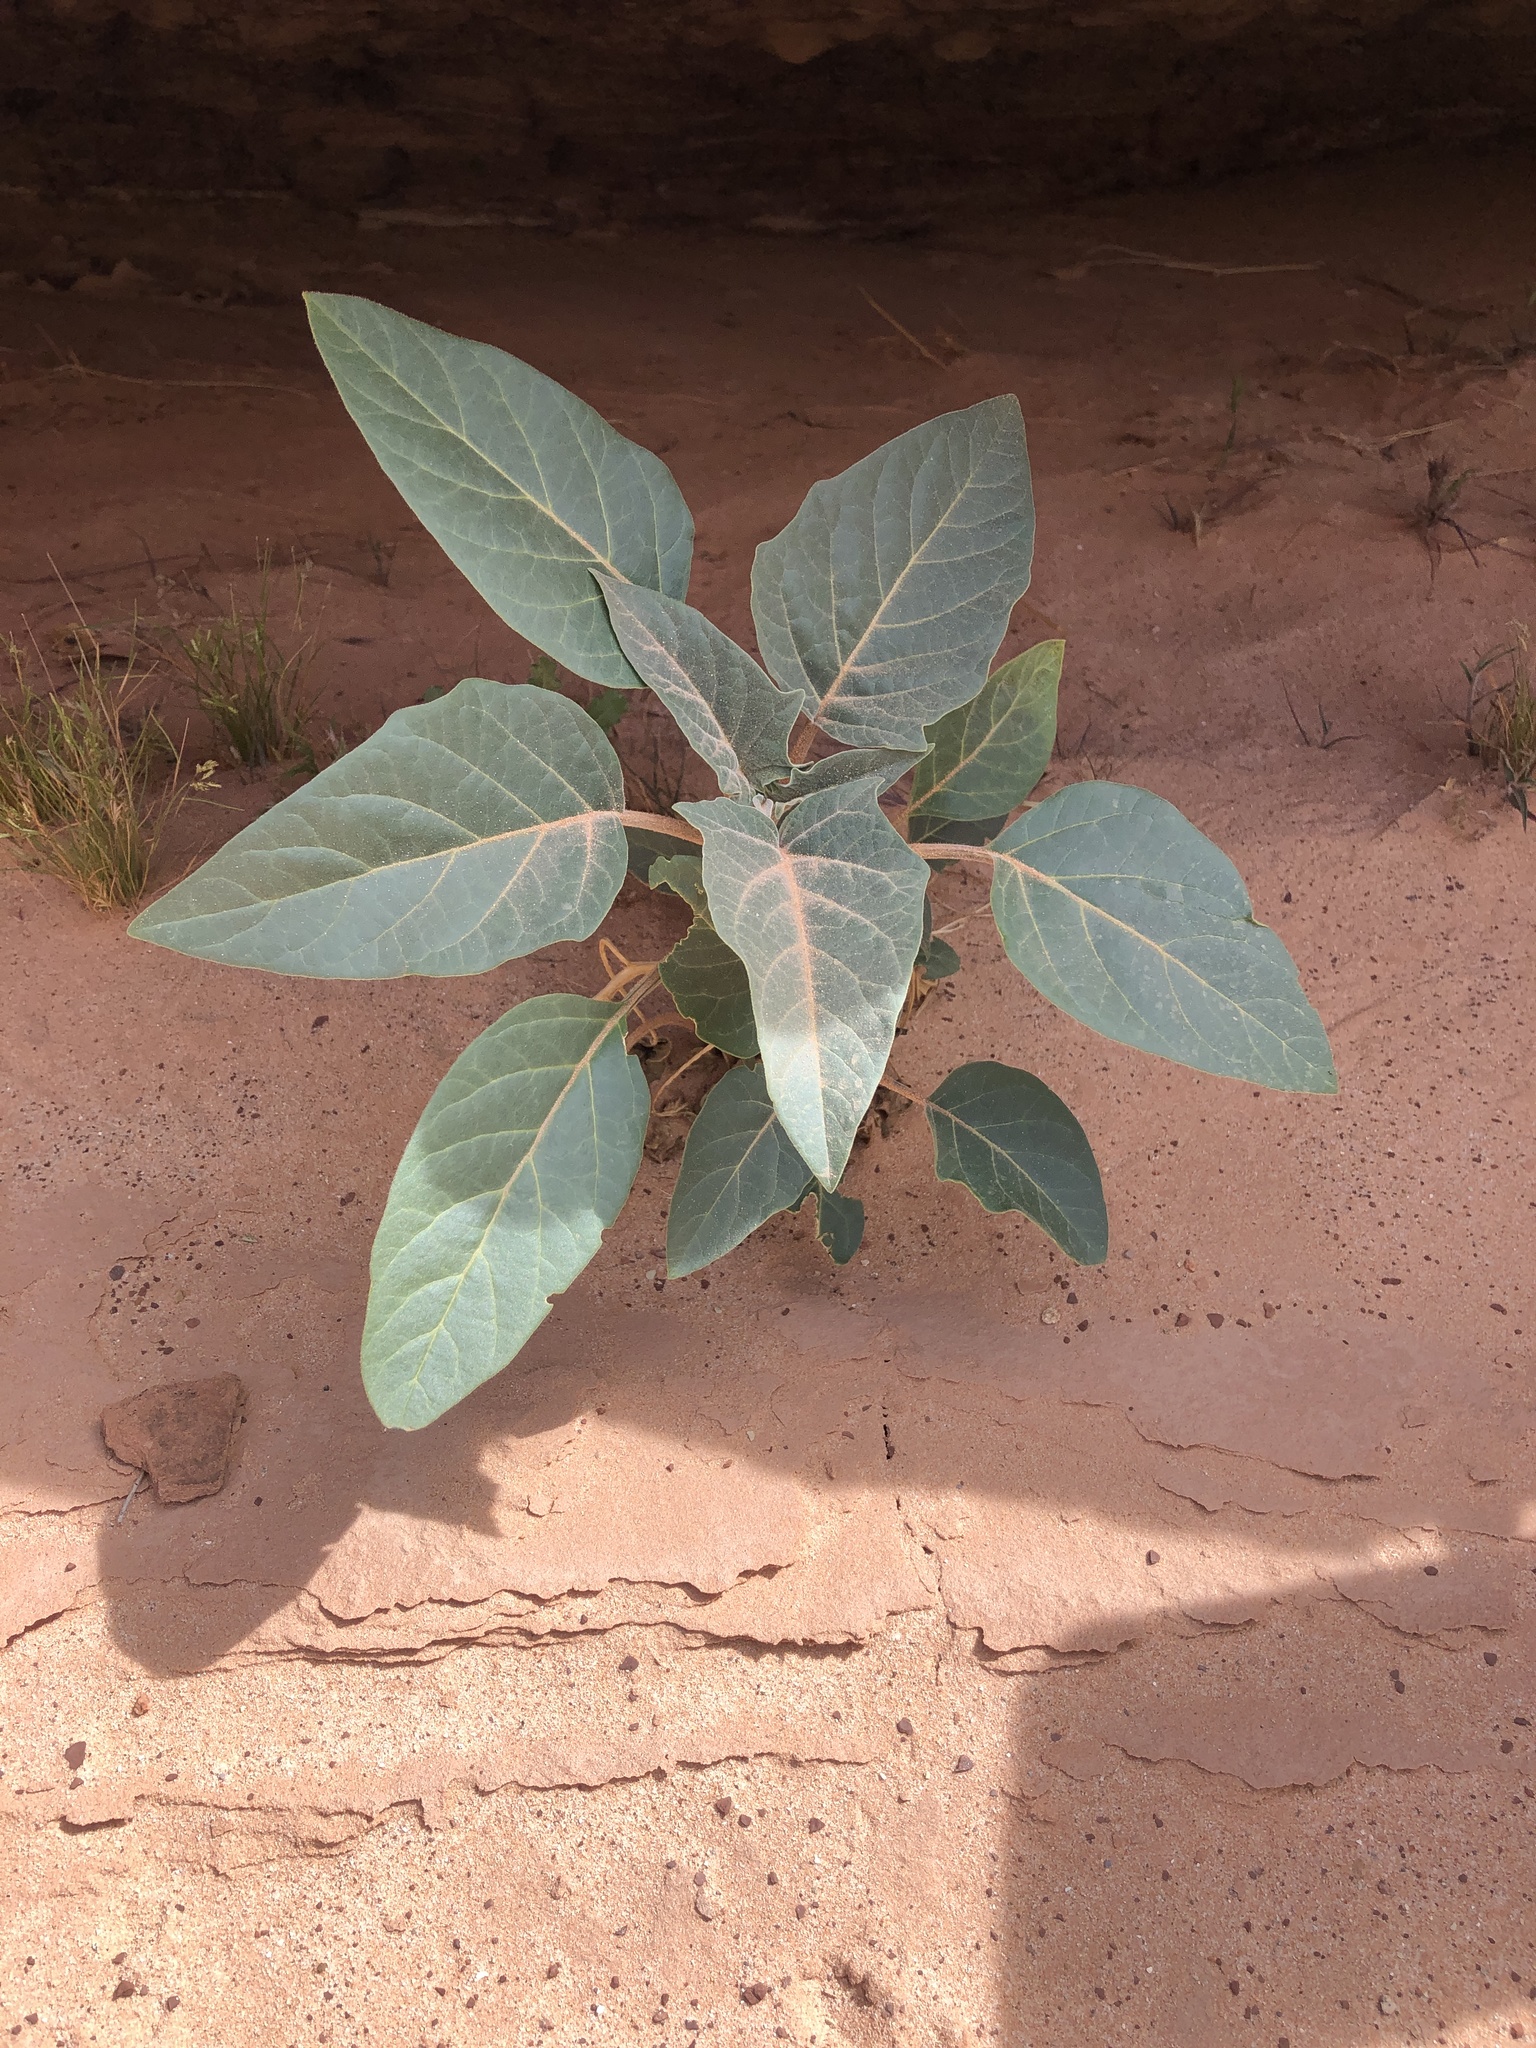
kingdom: Plantae
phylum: Tracheophyta
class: Magnoliopsida
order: Solanales
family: Solanaceae
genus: Datura
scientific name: Datura wrightii
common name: Sacred thorn-apple
